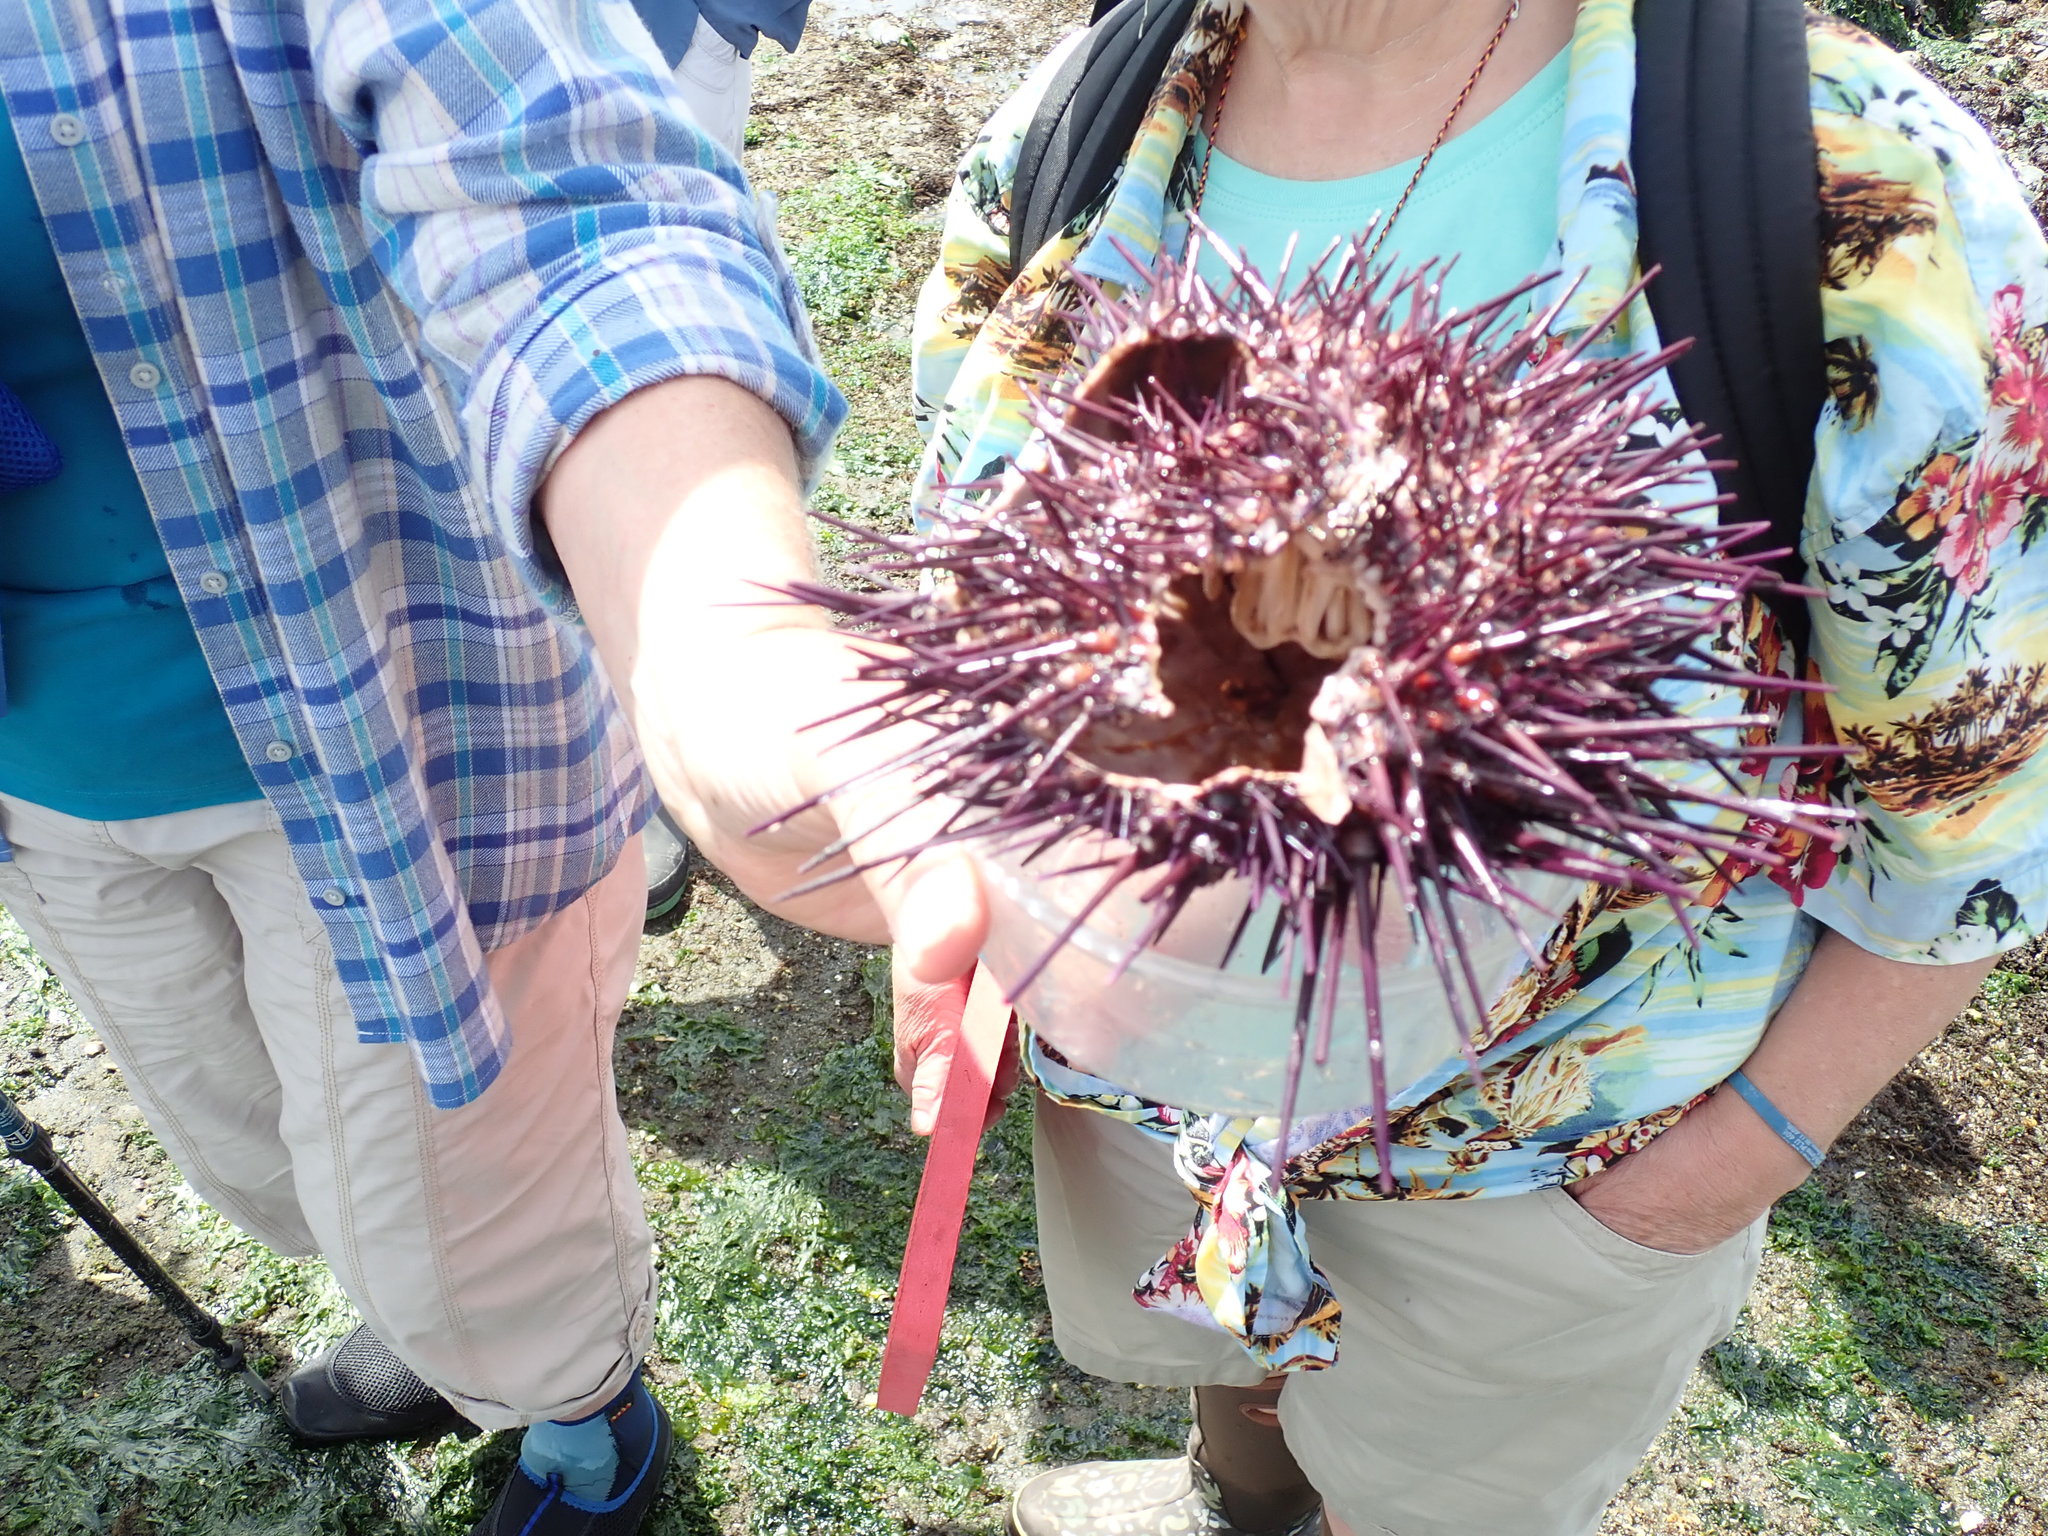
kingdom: Animalia
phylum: Echinodermata
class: Echinoidea
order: Camarodonta
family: Strongylocentrotidae
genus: Mesocentrotus
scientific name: Mesocentrotus franciscanus
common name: Red sea urchin
